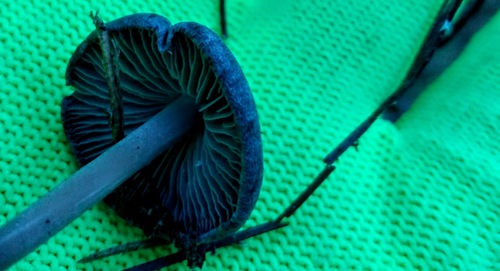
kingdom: Fungi
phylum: Basidiomycota
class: Agaricomycetes
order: Agaricales
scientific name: Agaricales
